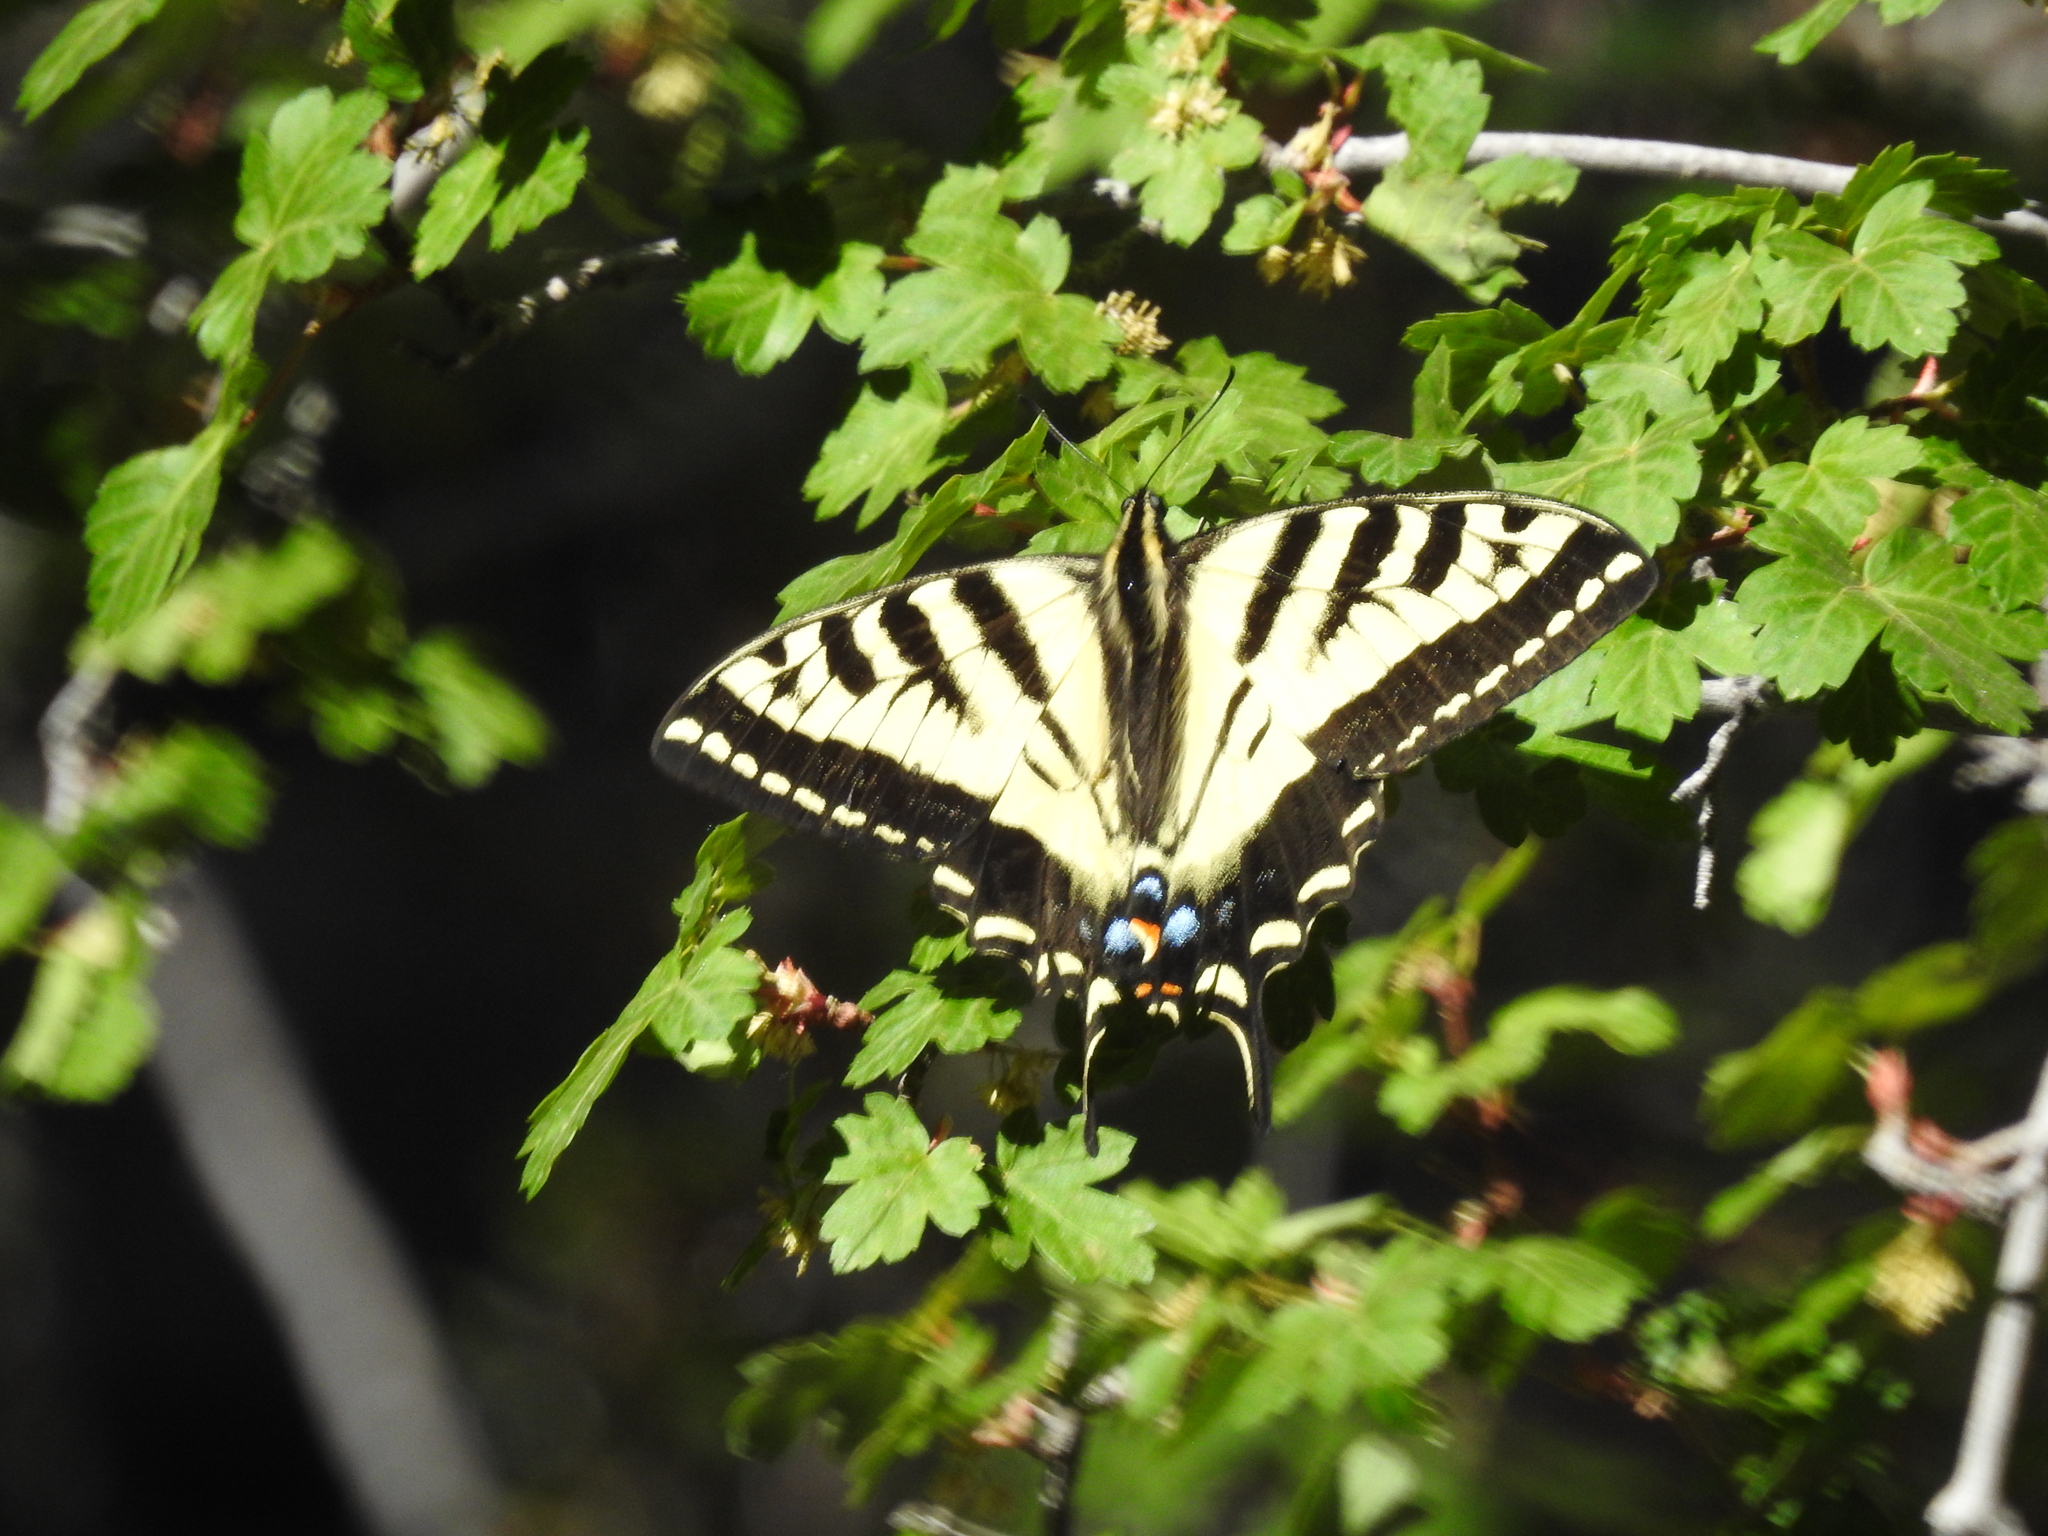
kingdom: Animalia
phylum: Arthropoda
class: Insecta
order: Lepidoptera
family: Papilionidae
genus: Papilio
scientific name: Papilio rutulus
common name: Western tiger swallowtail
